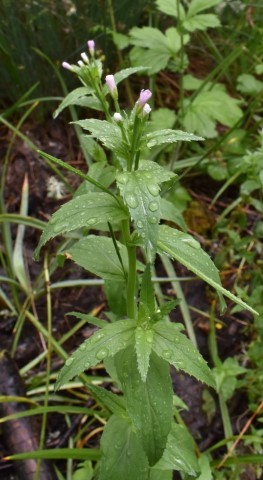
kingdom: Plantae
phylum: Tracheophyta
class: Magnoliopsida
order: Myrtales
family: Onagraceae
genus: Epilobium
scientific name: Epilobium ciliatum
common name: American willowherb
